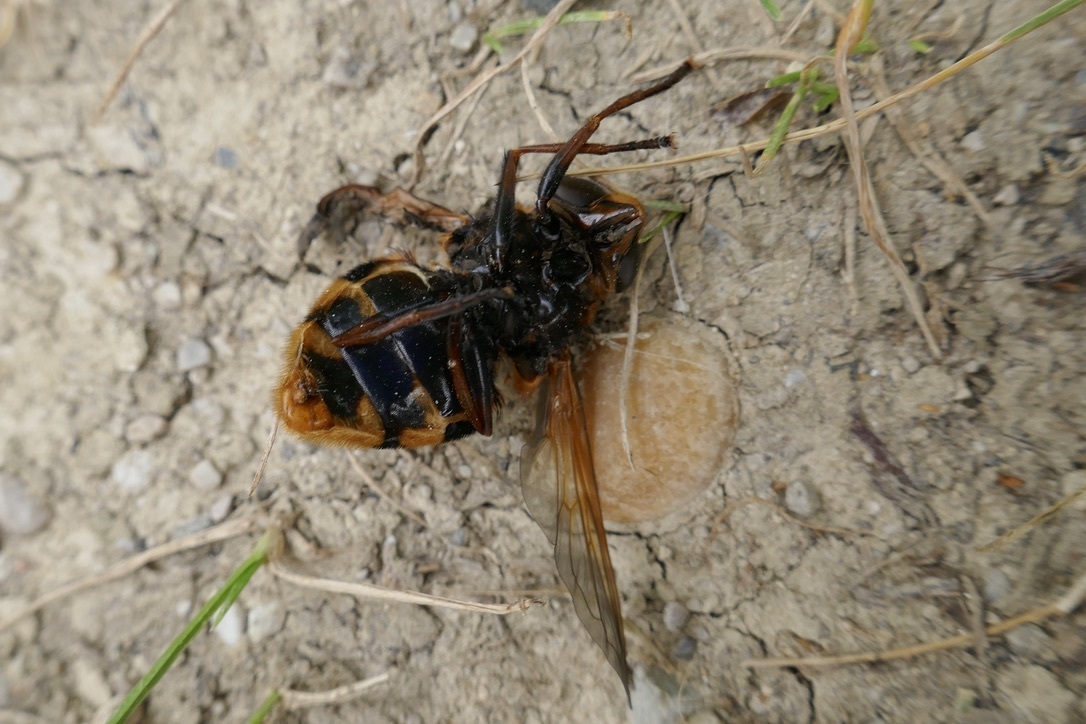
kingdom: Animalia
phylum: Arthropoda
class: Insecta
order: Diptera
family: Syrphidae
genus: Volucella
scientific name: Volucella zonaria
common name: Hornet hoverfly
